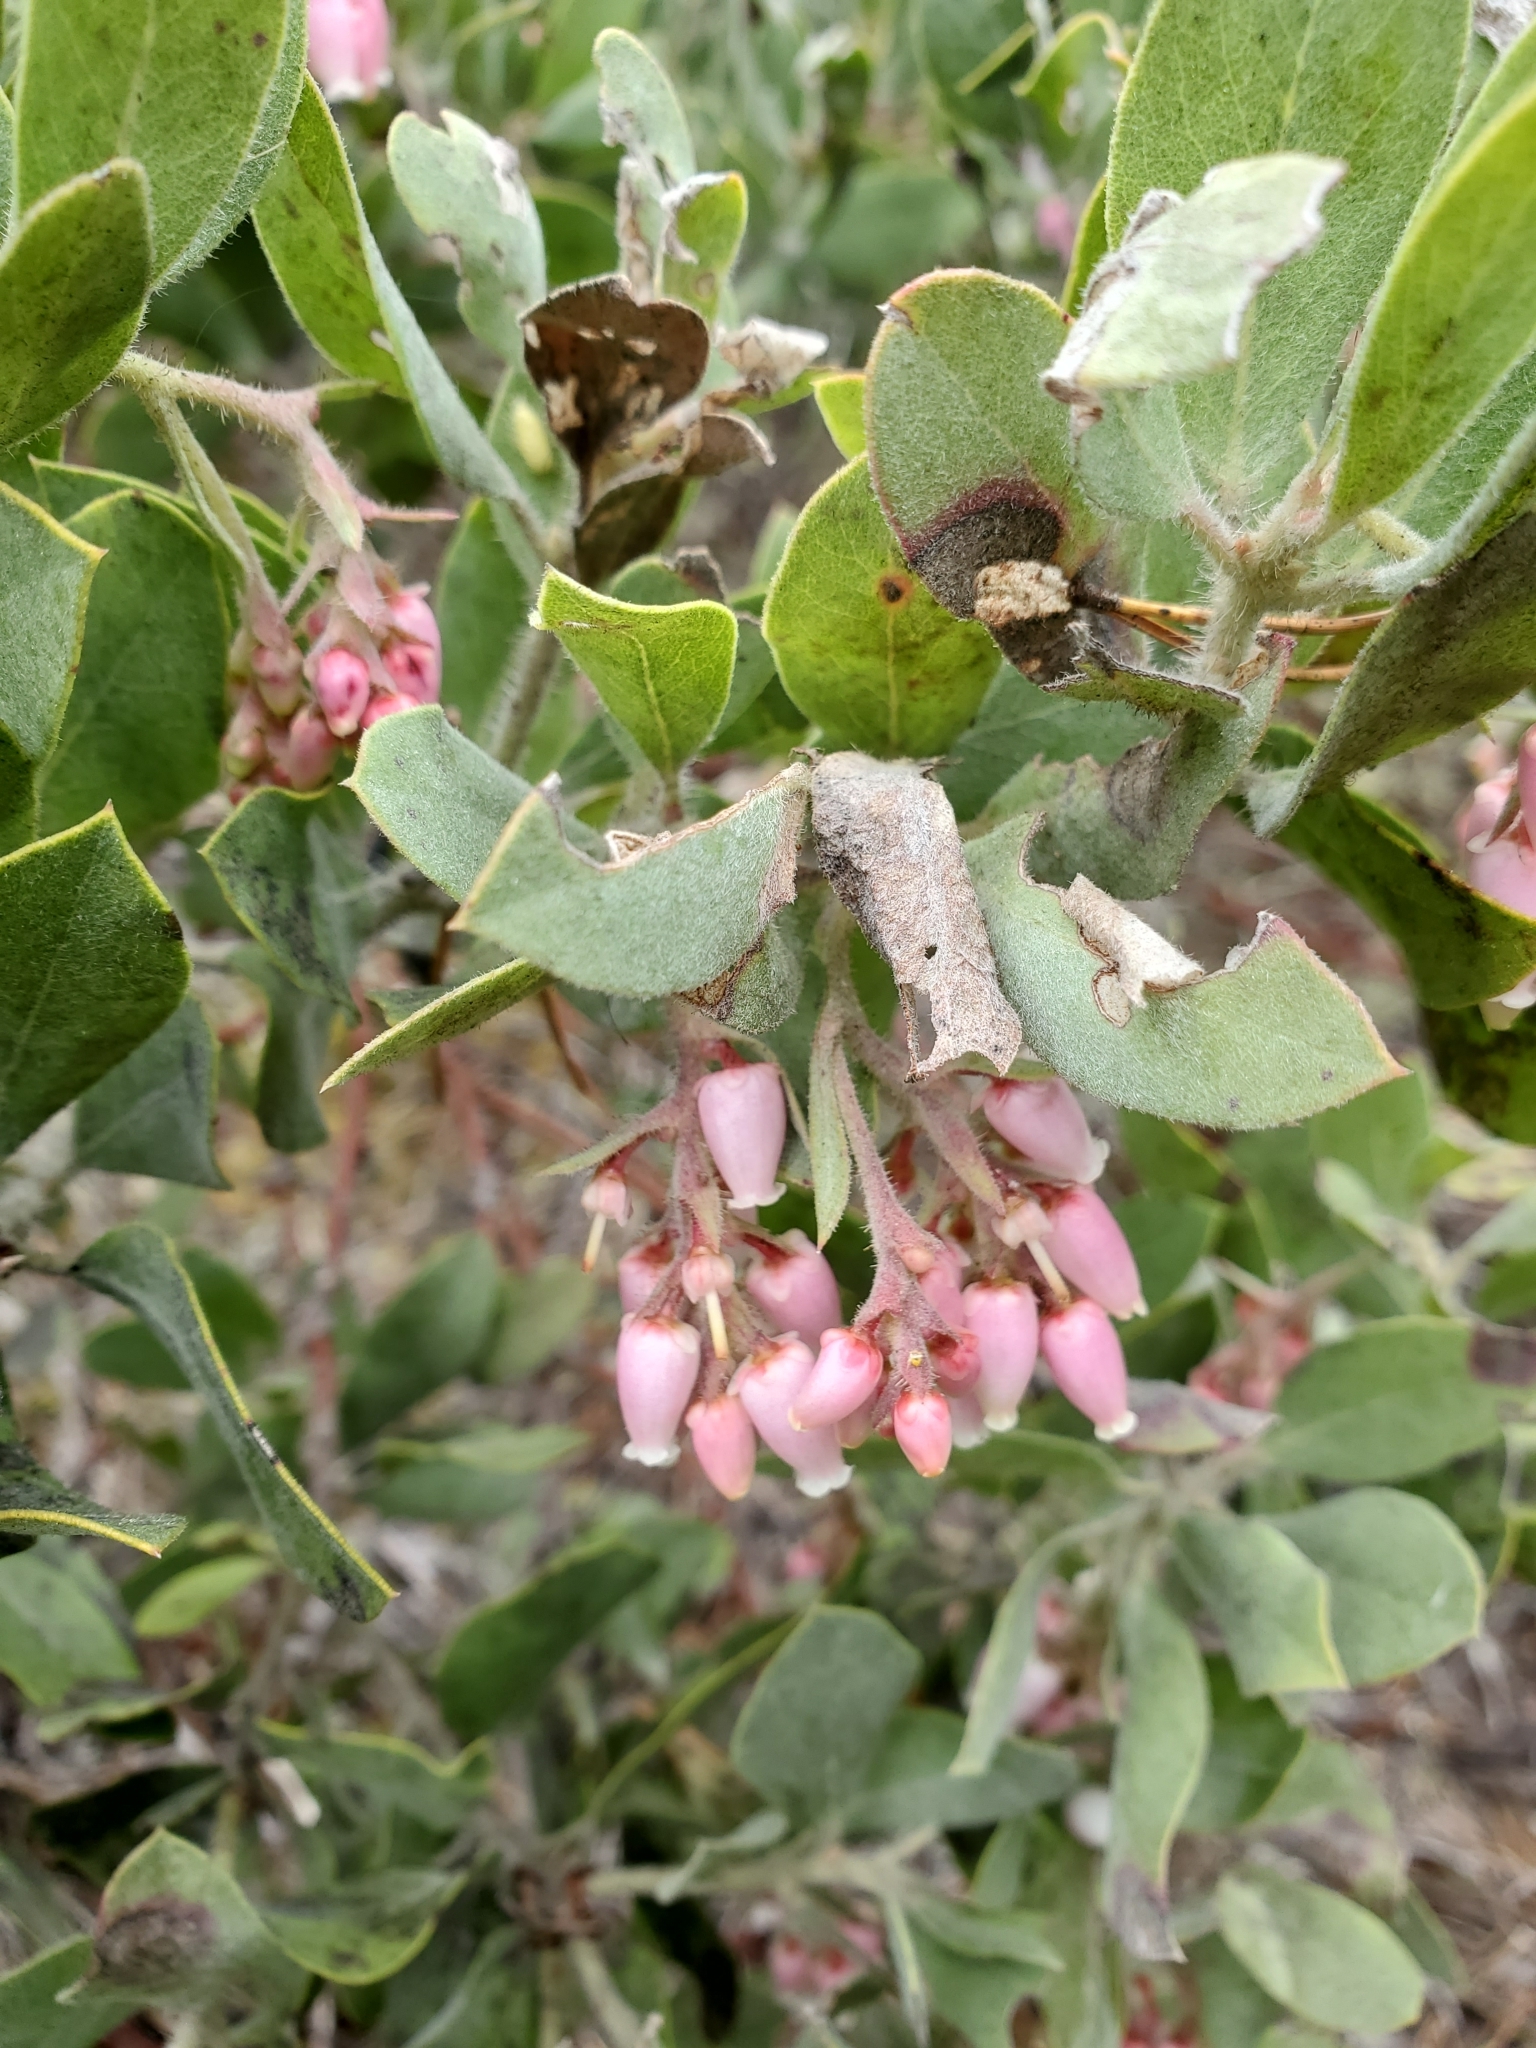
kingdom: Plantae
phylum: Tracheophyta
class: Magnoliopsida
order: Ericales
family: Ericaceae
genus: Arctostaphylos
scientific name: Arctostaphylos columbiana
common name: Bristly bearberry
